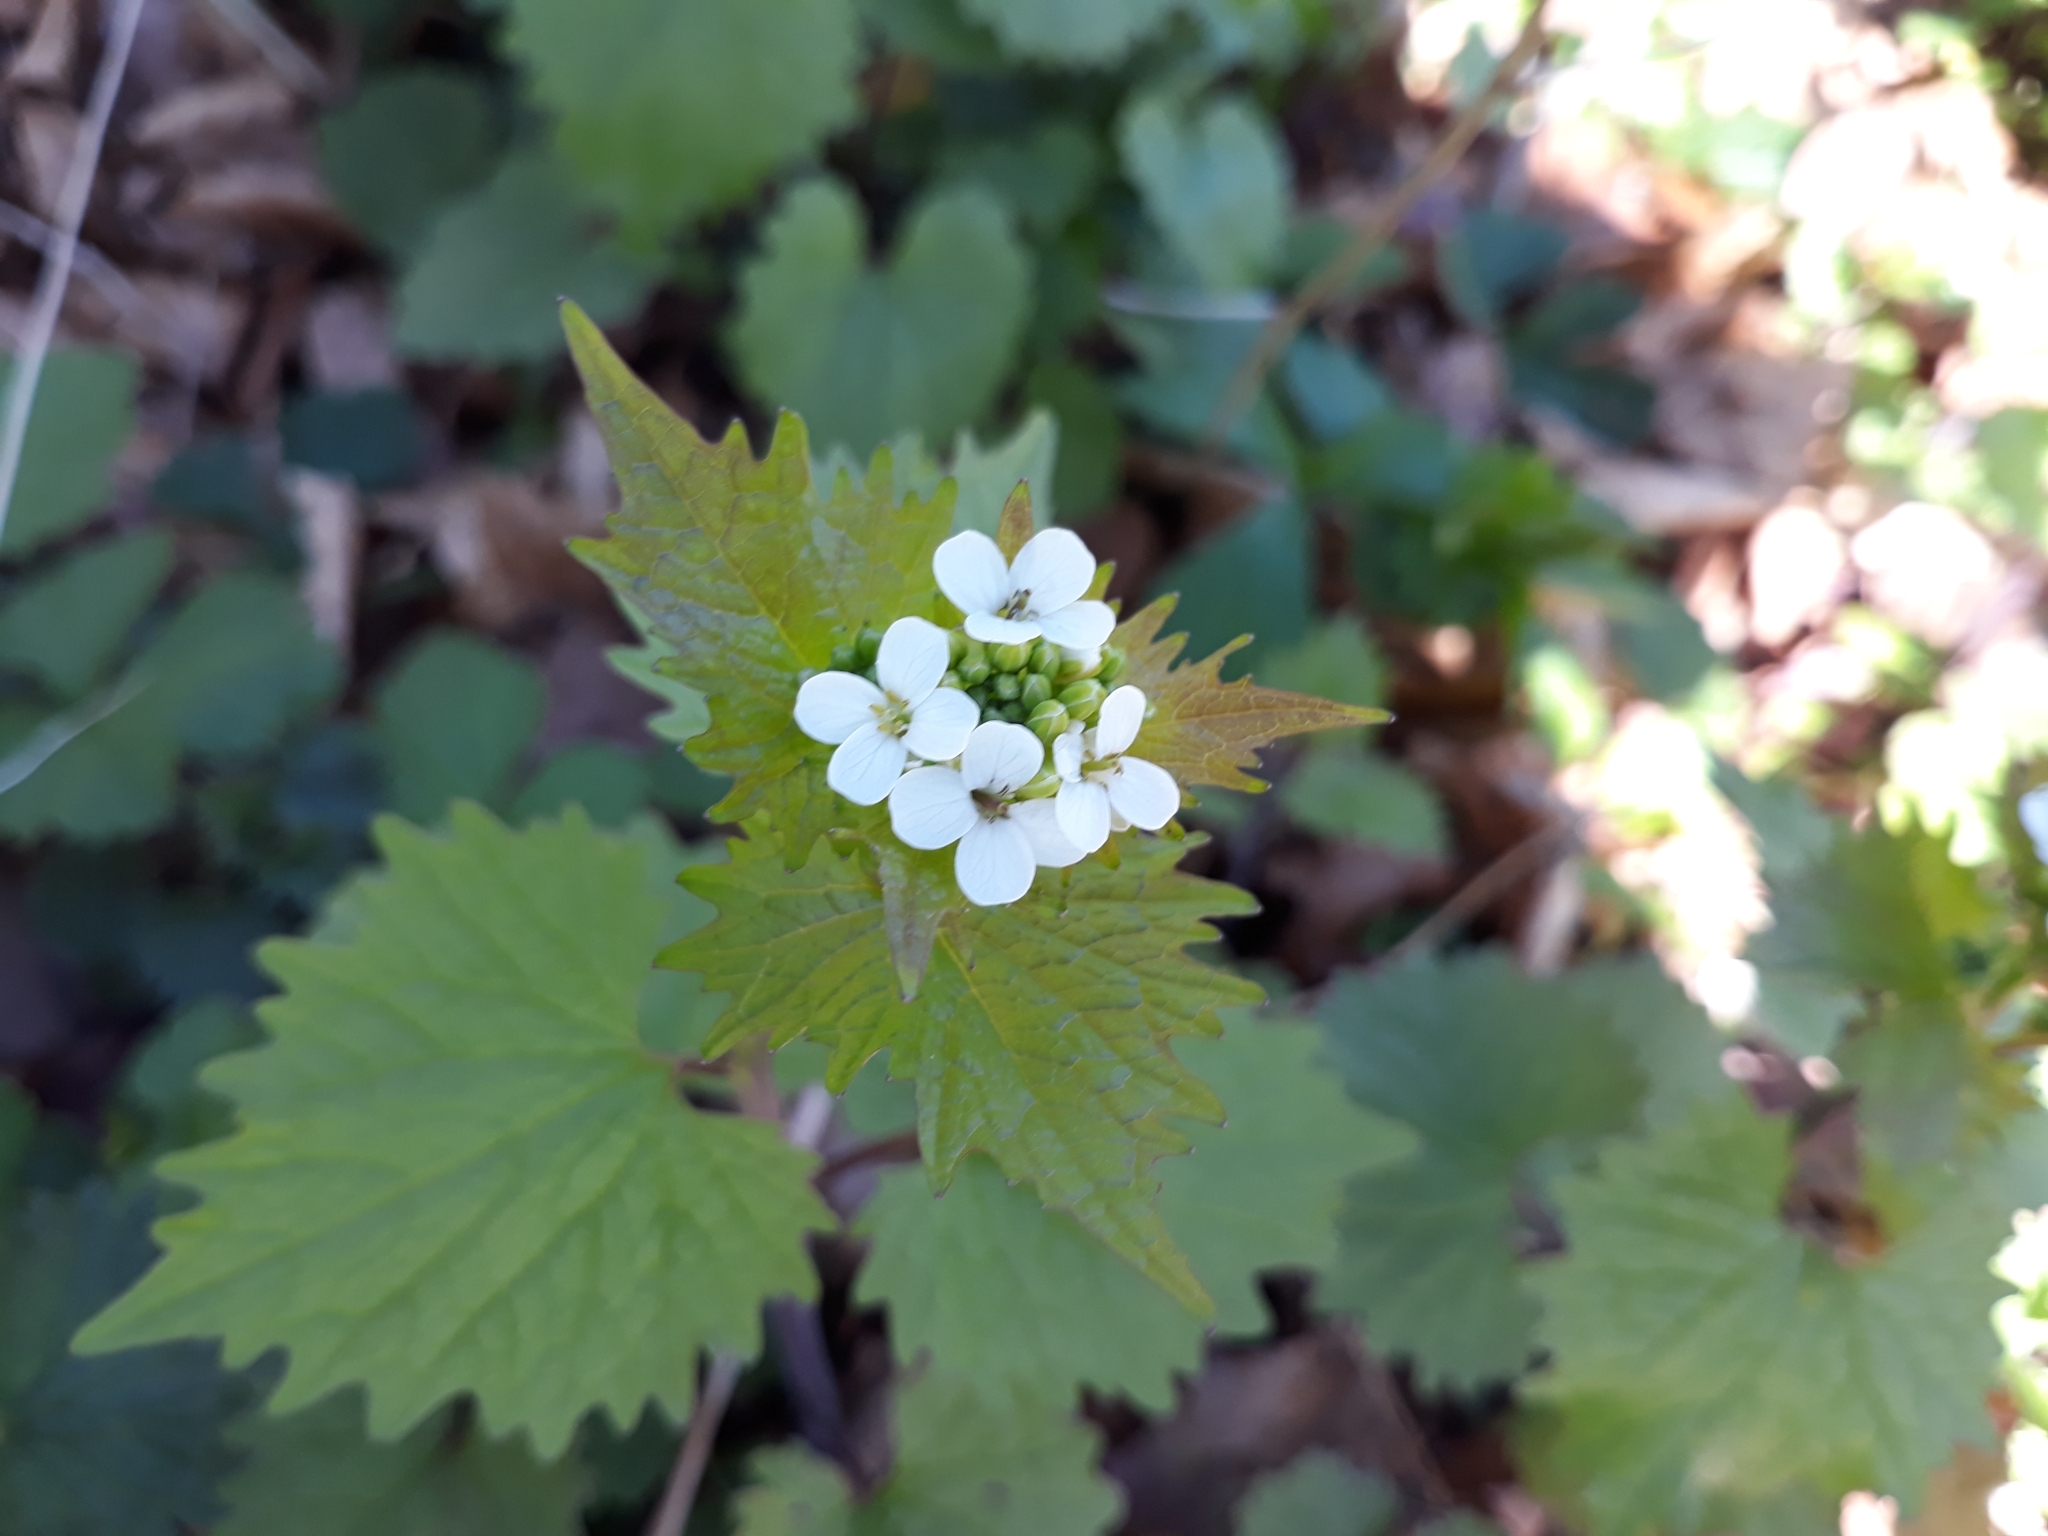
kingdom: Plantae
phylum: Tracheophyta
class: Magnoliopsida
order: Brassicales
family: Brassicaceae
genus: Alliaria
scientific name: Alliaria petiolata
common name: Garlic mustard
